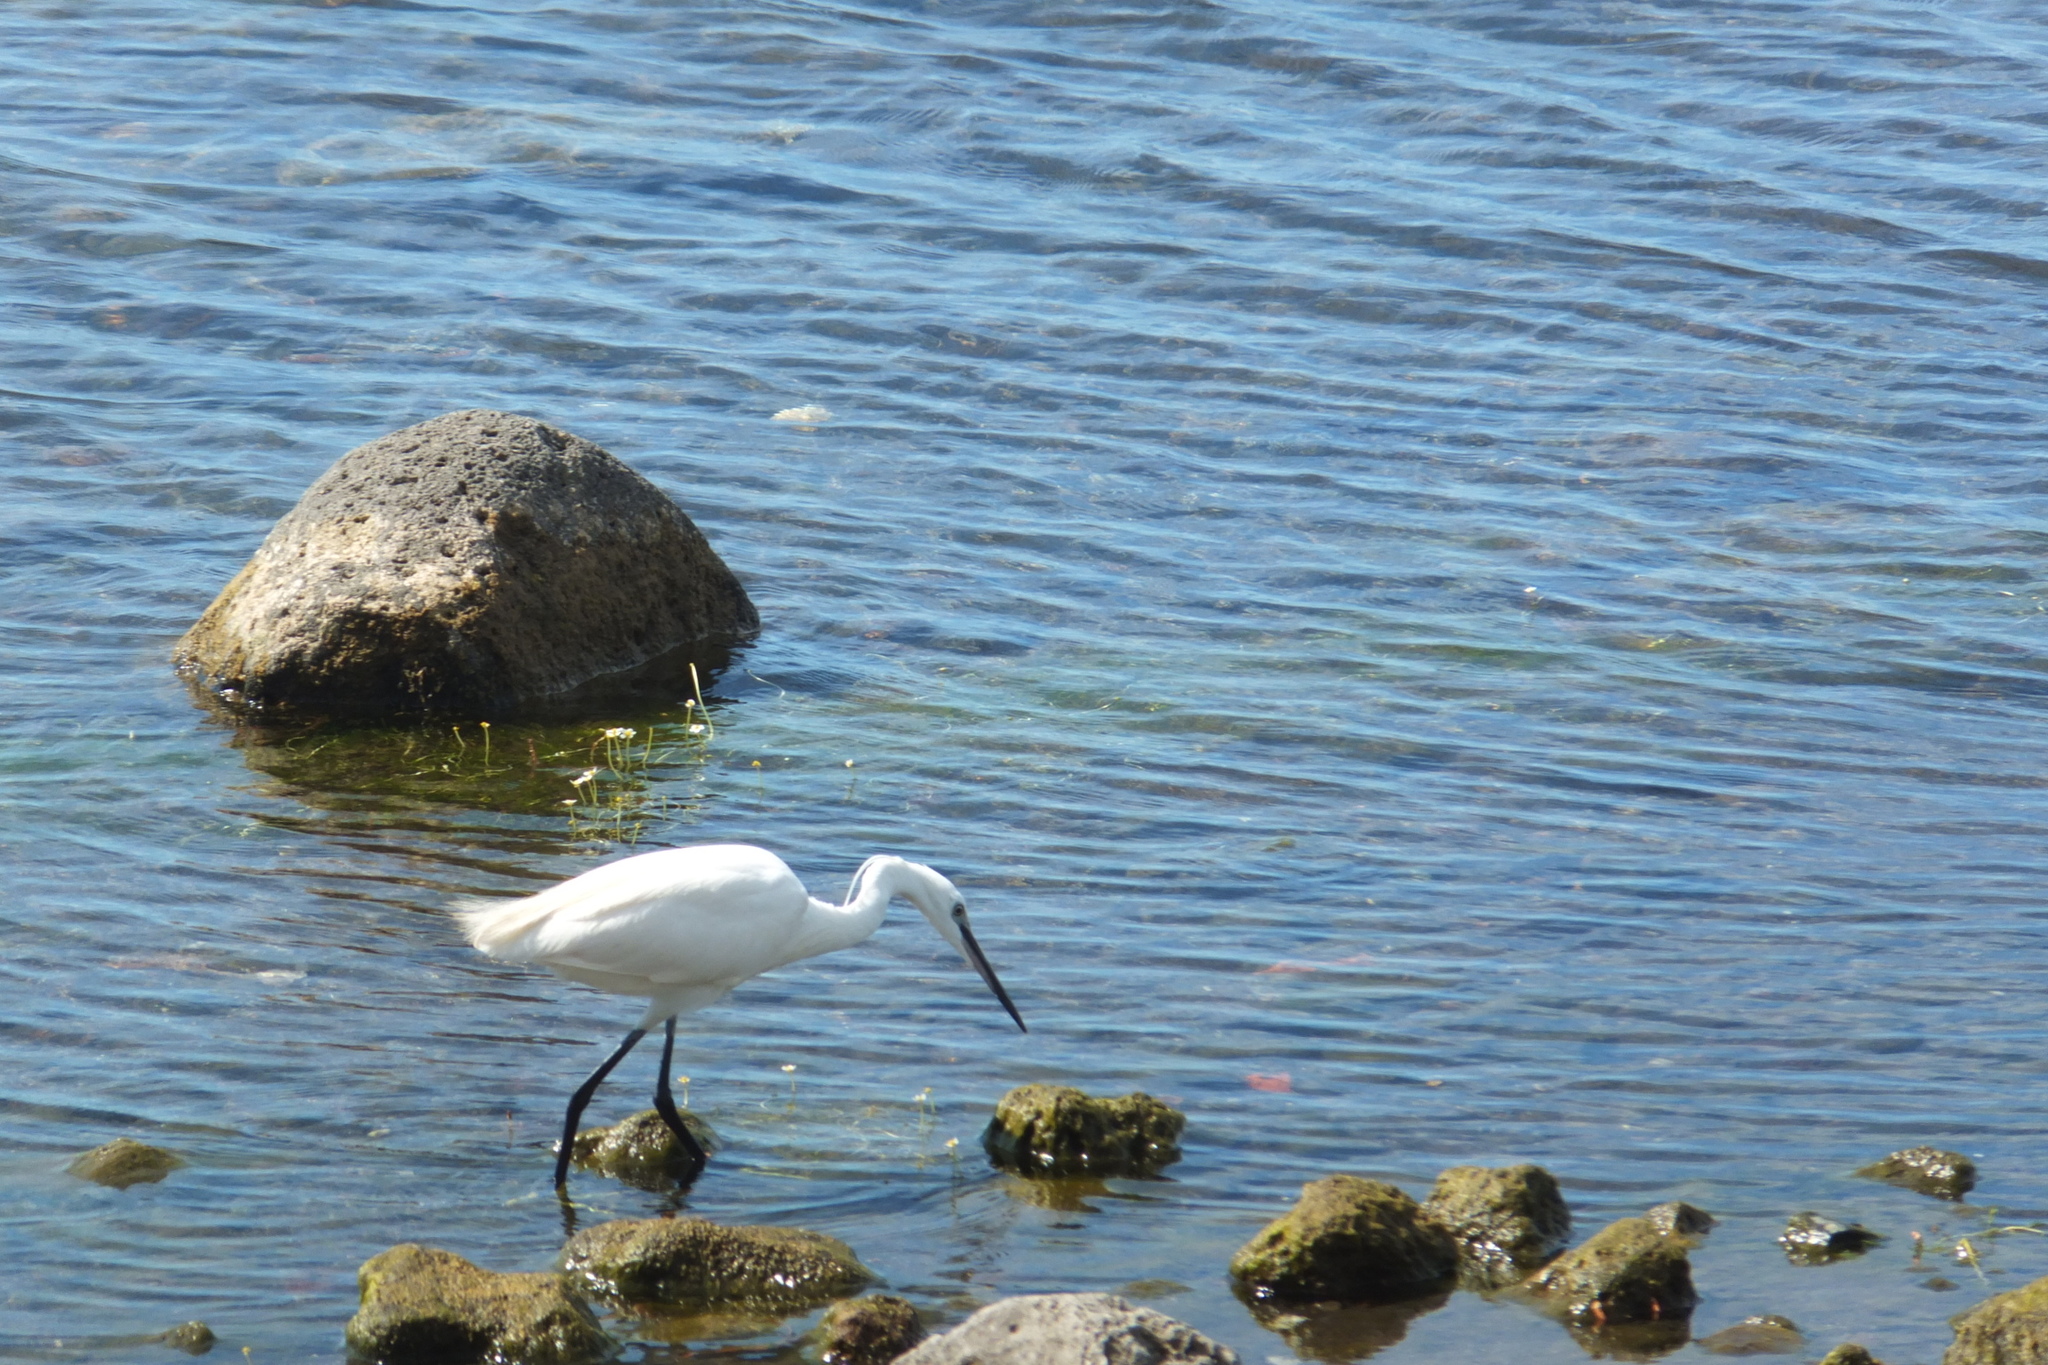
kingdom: Animalia
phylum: Chordata
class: Aves
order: Pelecaniformes
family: Ardeidae
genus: Egretta
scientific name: Egretta garzetta
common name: Little egret
